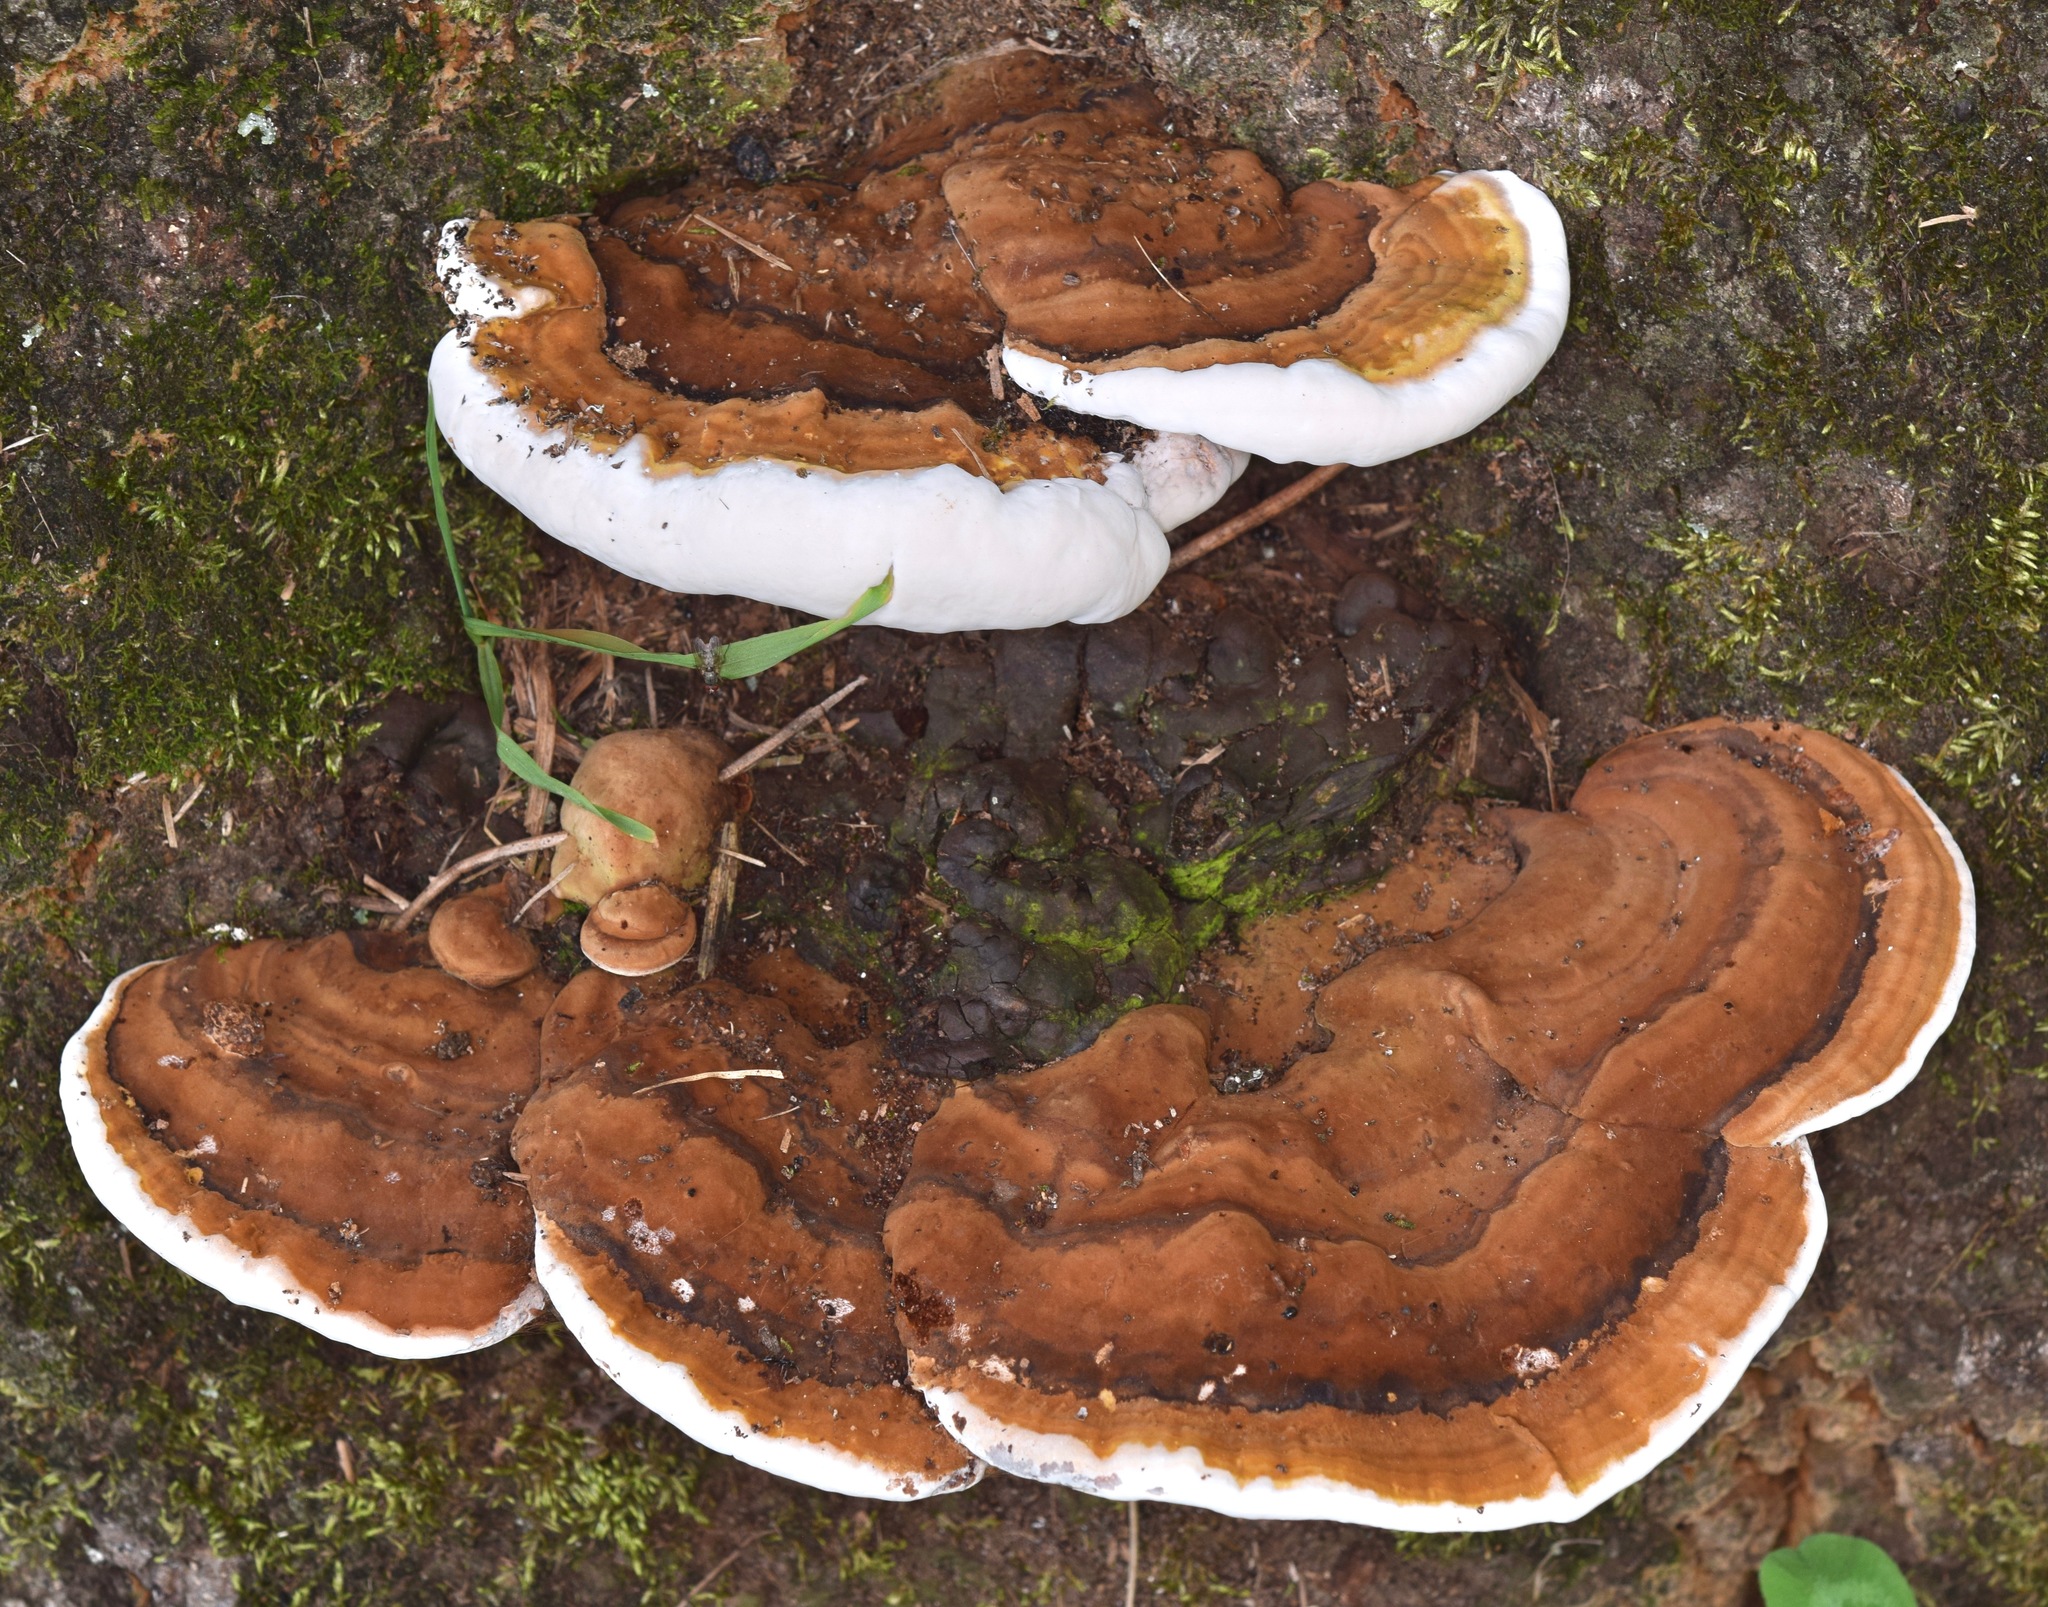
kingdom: Fungi
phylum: Basidiomycota
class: Agaricomycetes
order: Polyporales
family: Polyporaceae
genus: Ganoderma
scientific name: Ganoderma lobatum
